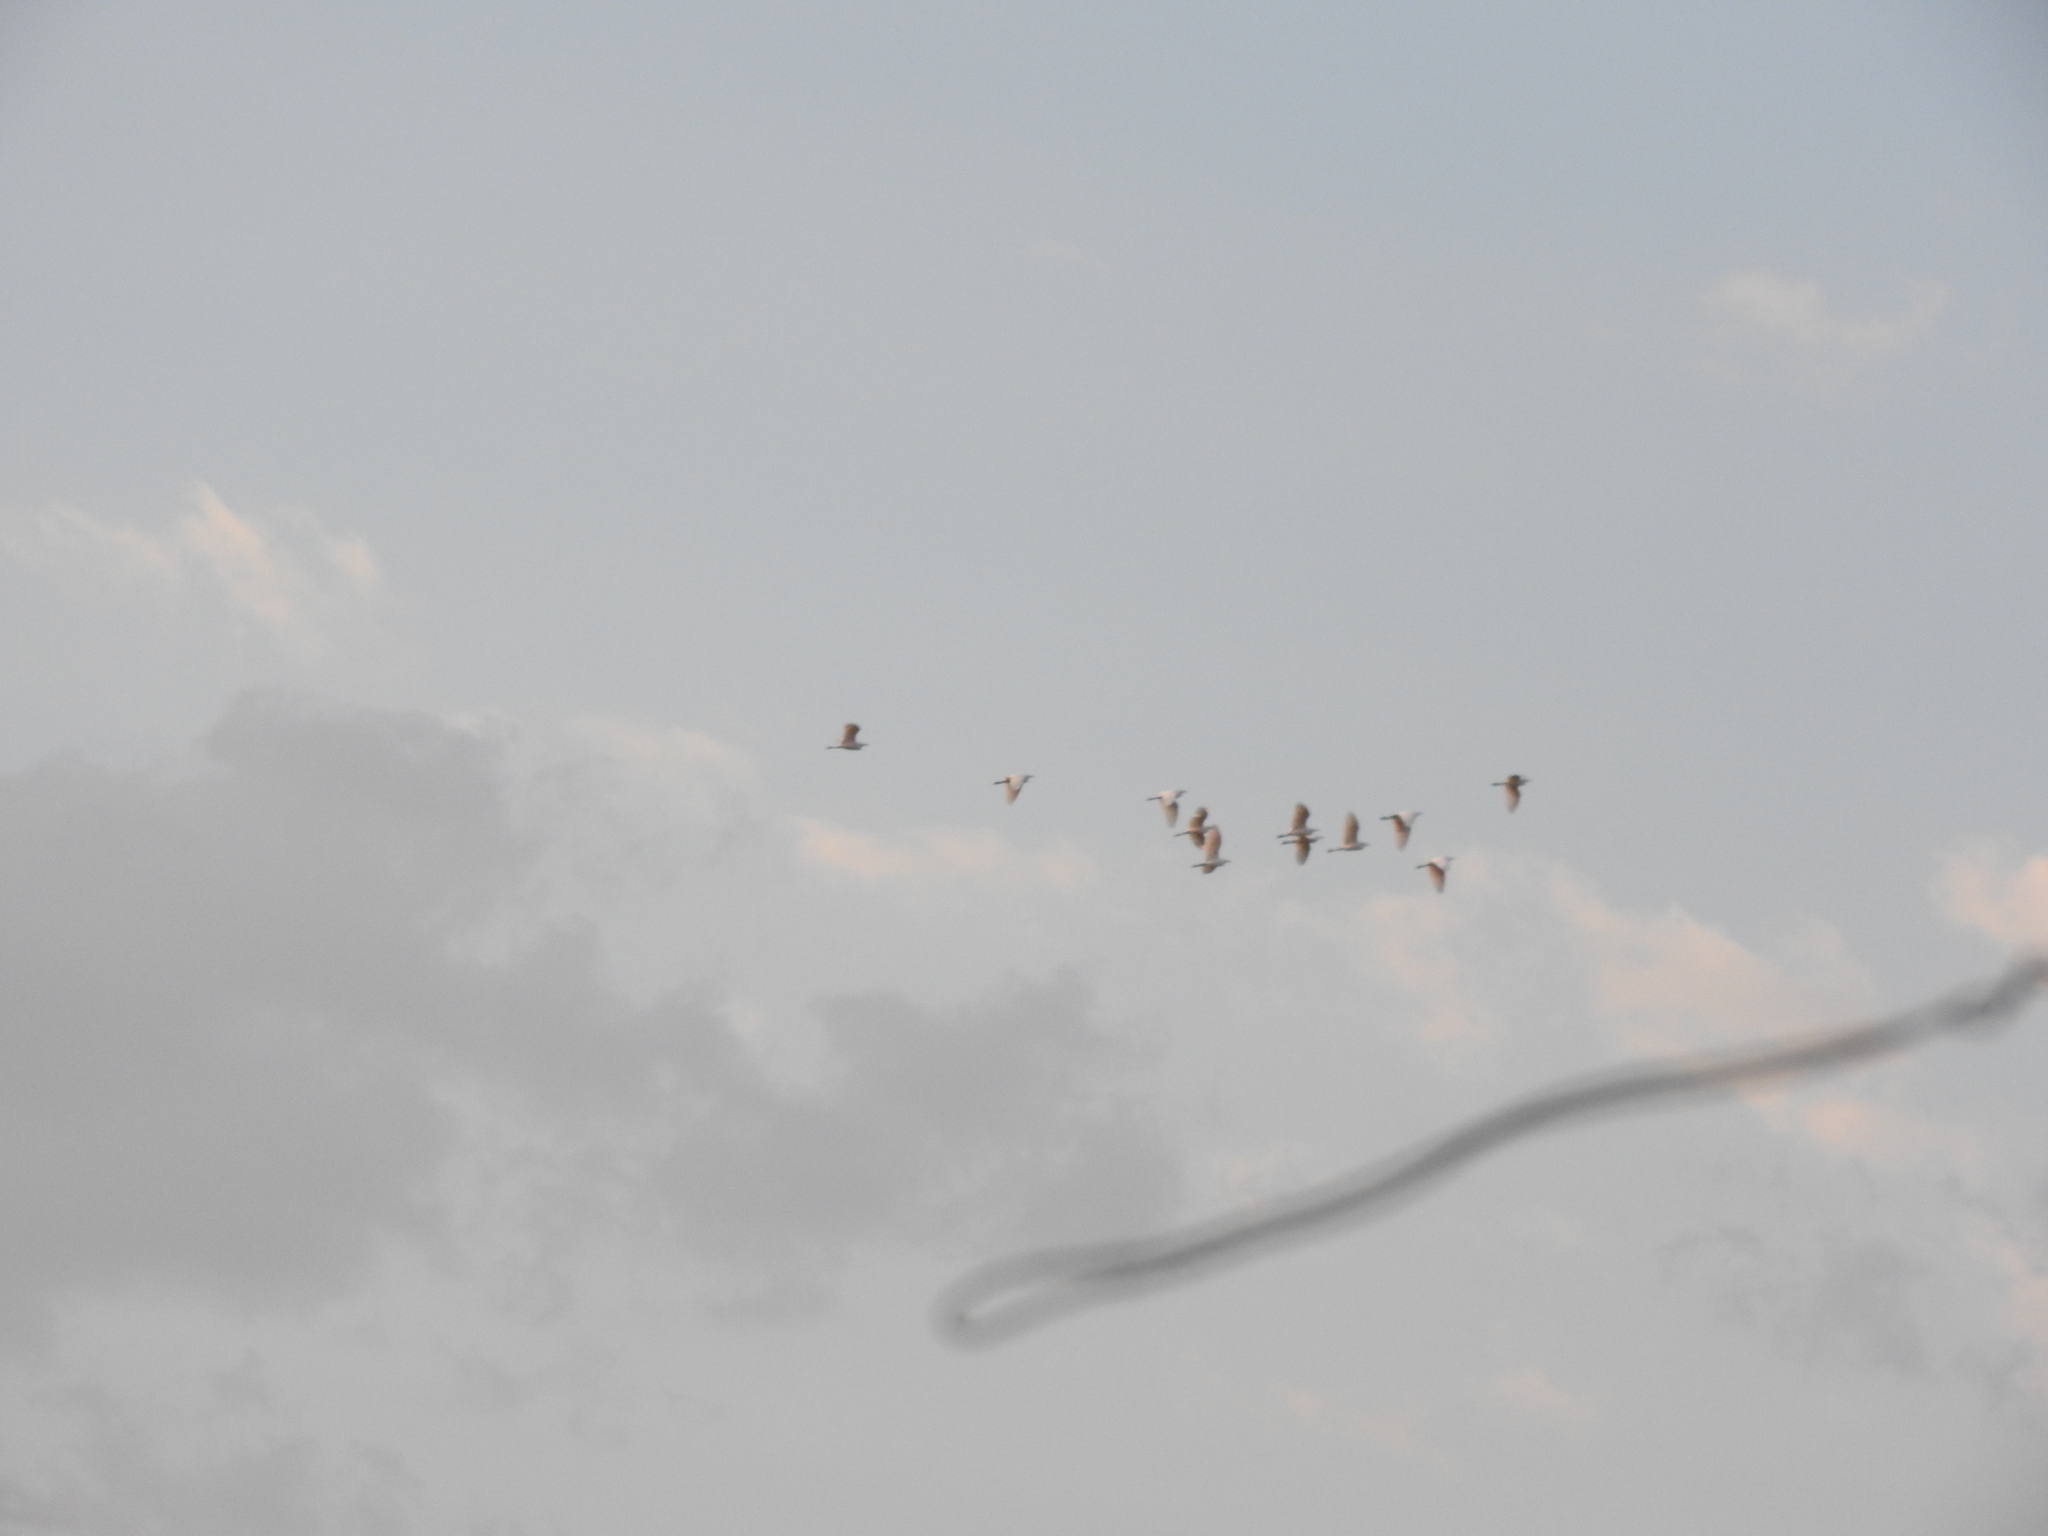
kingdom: Animalia
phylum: Chordata
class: Aves
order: Pelecaniformes
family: Ardeidae
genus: Bubulcus
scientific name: Bubulcus ibis
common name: Cattle egret
